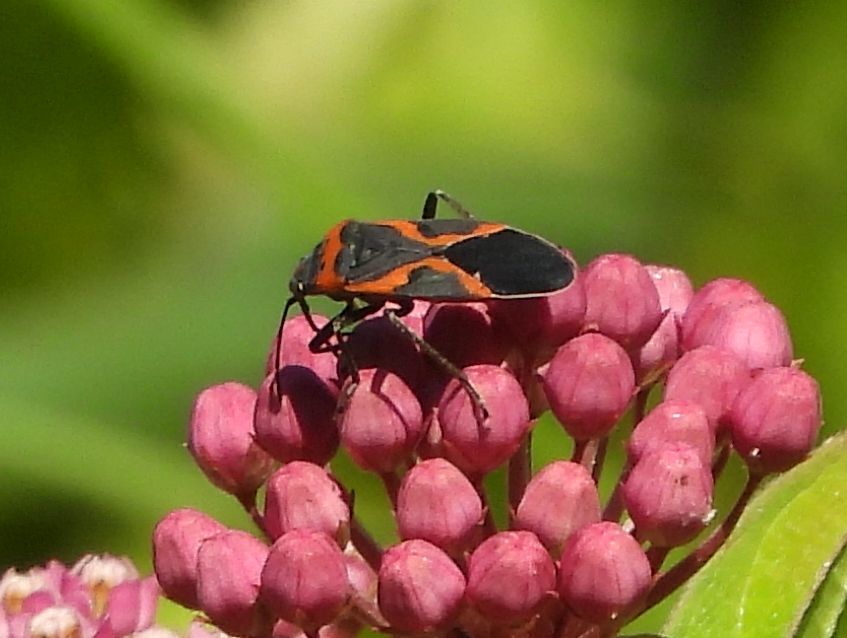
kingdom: Animalia
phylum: Arthropoda
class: Insecta
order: Hemiptera
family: Lygaeidae
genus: Lygaeus
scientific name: Lygaeus kalmii
